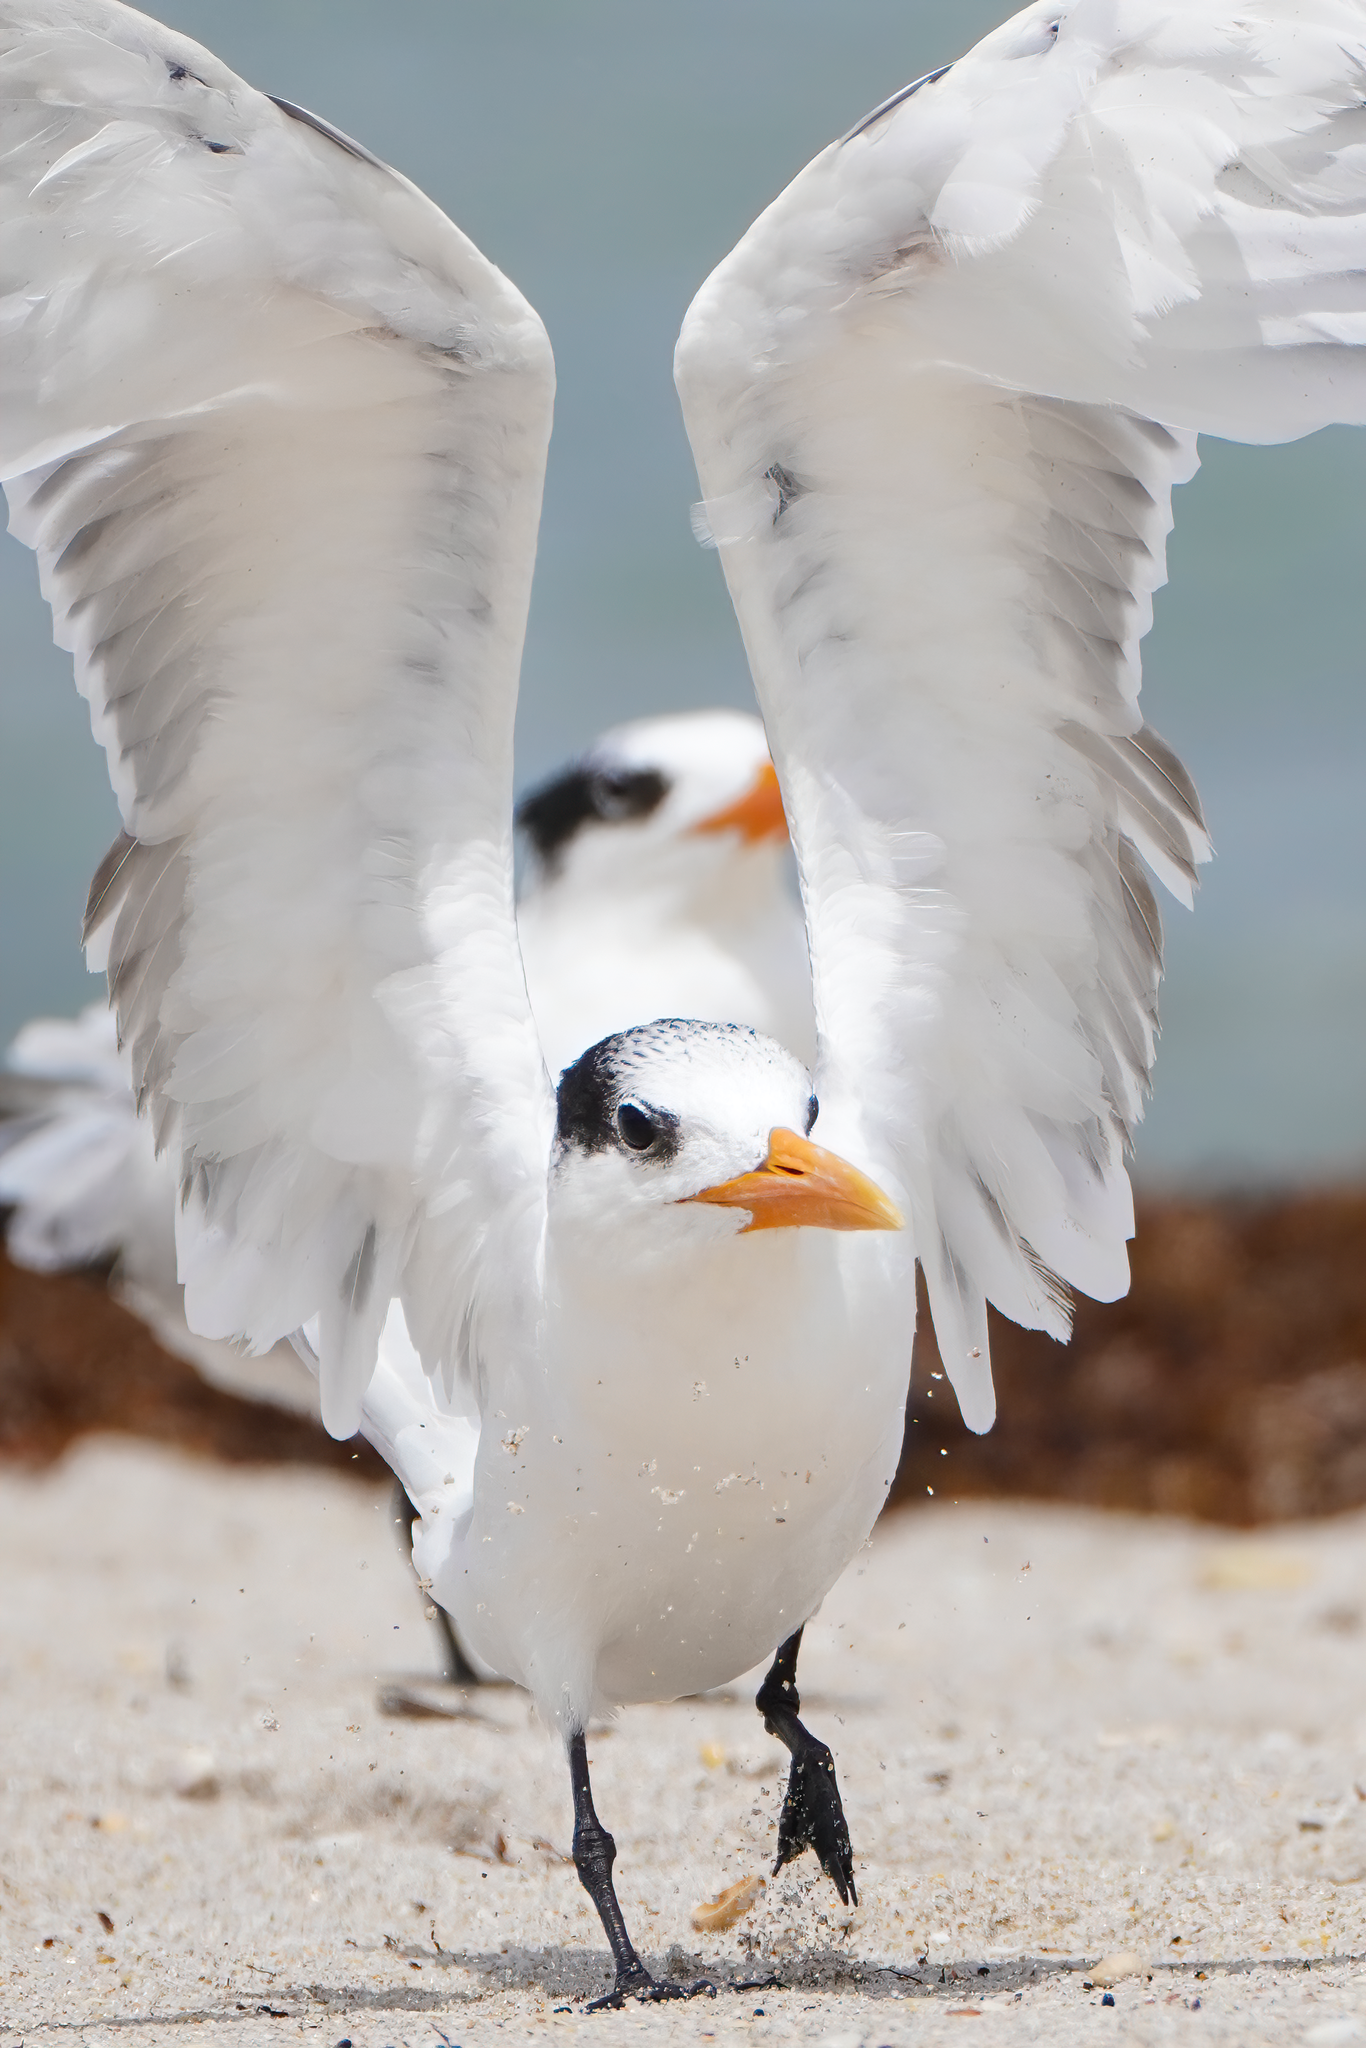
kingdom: Animalia
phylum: Chordata
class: Aves
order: Charadriiformes
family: Laridae
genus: Thalasseus
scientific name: Thalasseus maximus
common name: Royal tern
